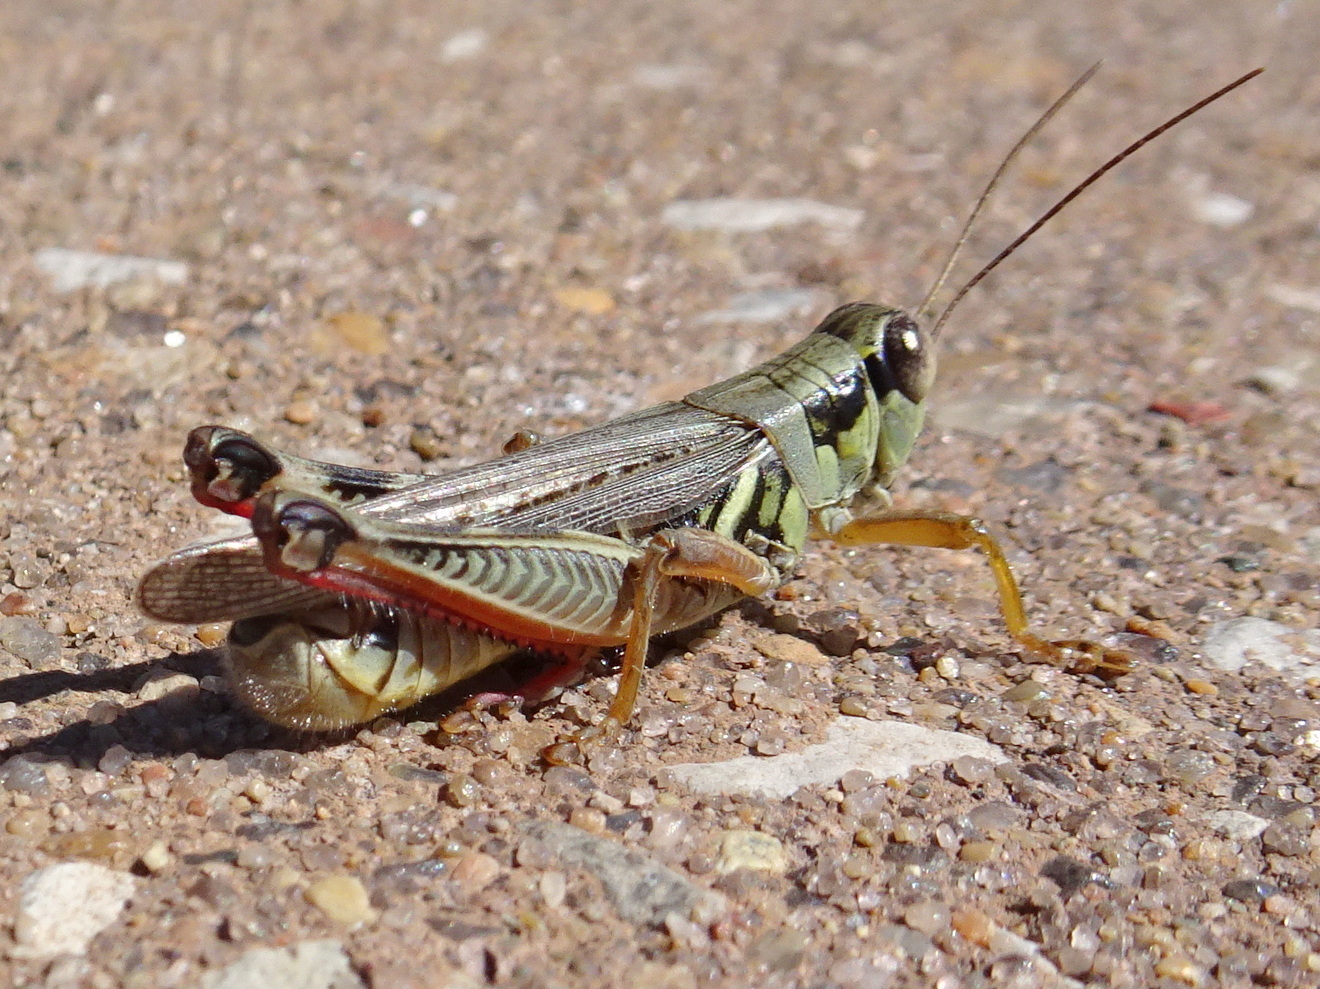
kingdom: Animalia
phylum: Arthropoda
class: Insecta
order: Orthoptera
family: Acrididae
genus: Melanoplus
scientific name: Melanoplus femurrubrum
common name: Red-legged grasshopper
